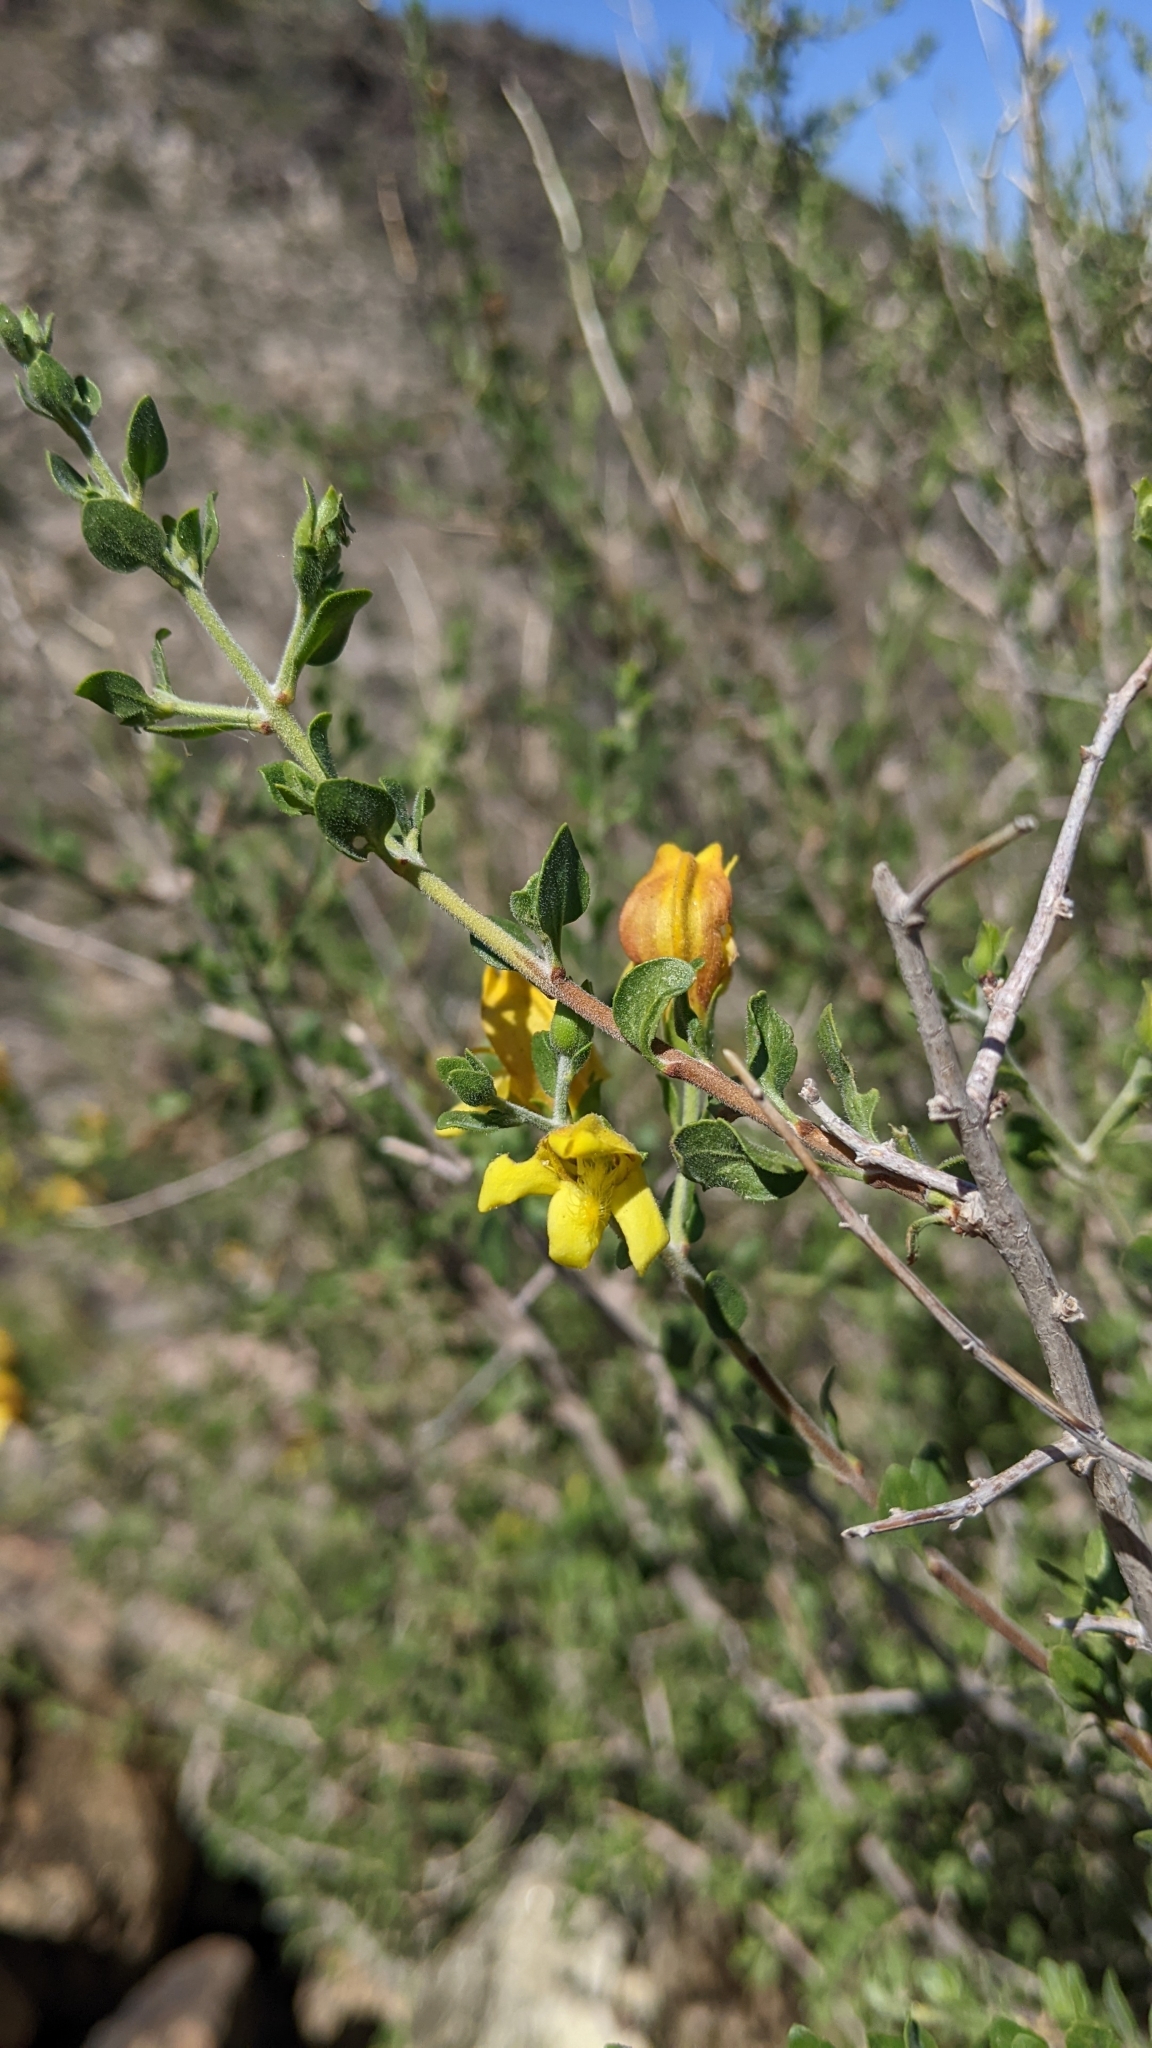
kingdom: Plantae
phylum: Tracheophyta
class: Magnoliopsida
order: Lamiales
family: Plantaginaceae
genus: Keckiella
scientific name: Keckiella antirrhinoides
